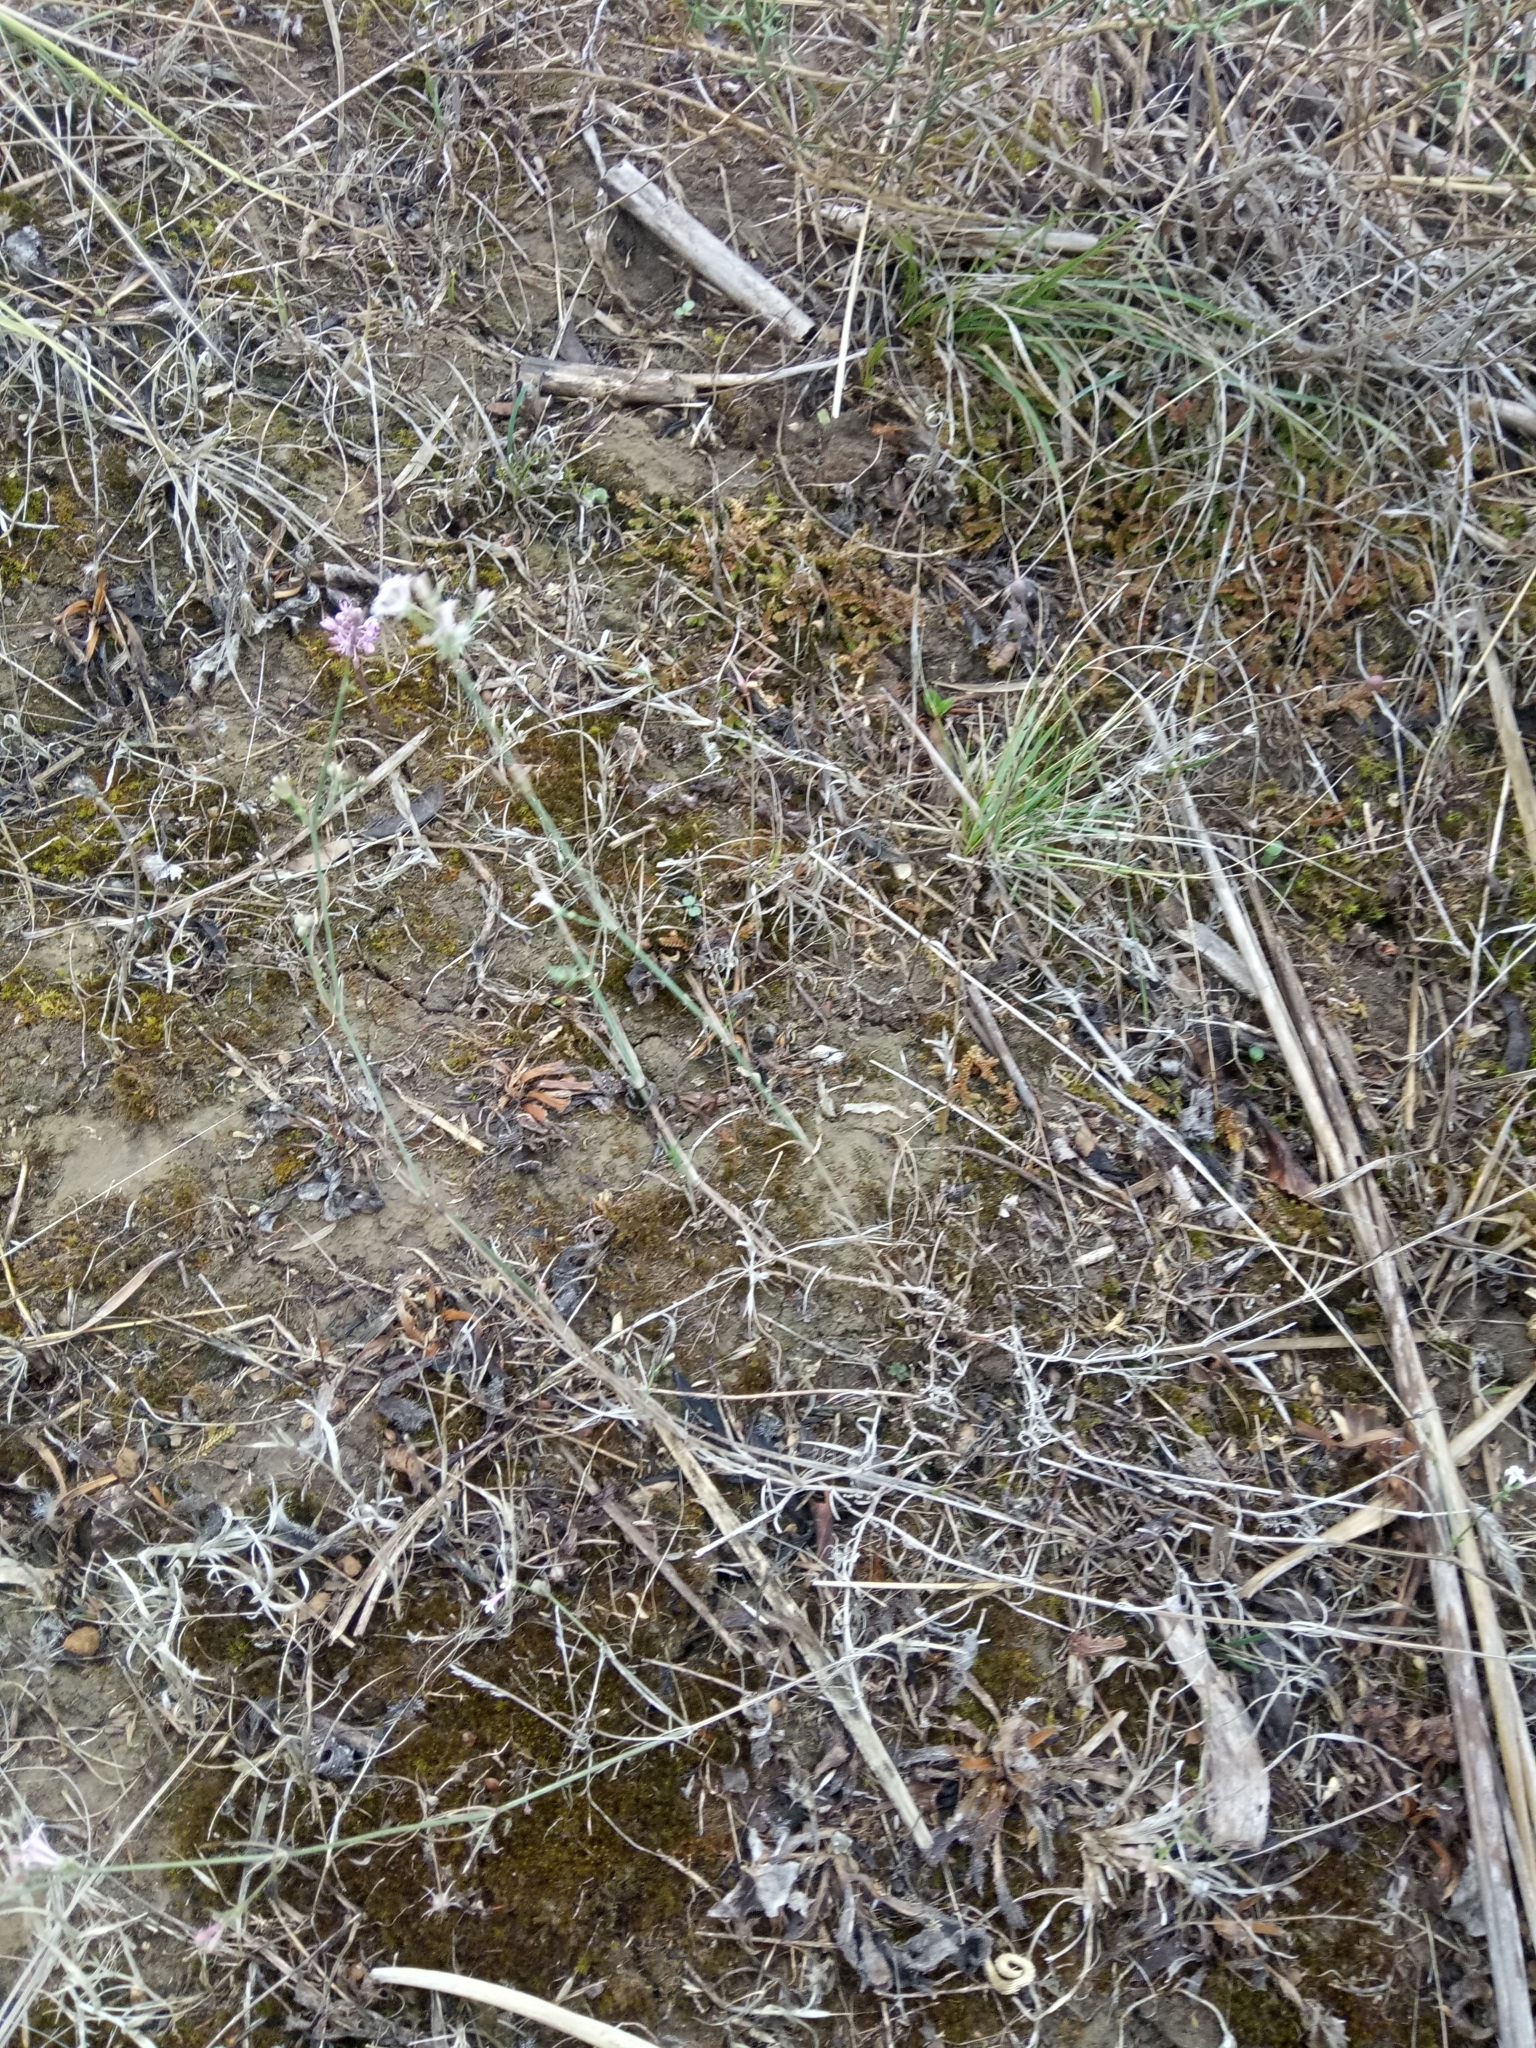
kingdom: Plantae
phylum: Tracheophyta
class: Magnoliopsida
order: Gentianales
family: Rubiaceae
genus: Cynanchica
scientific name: Cynanchica pyrenaica
